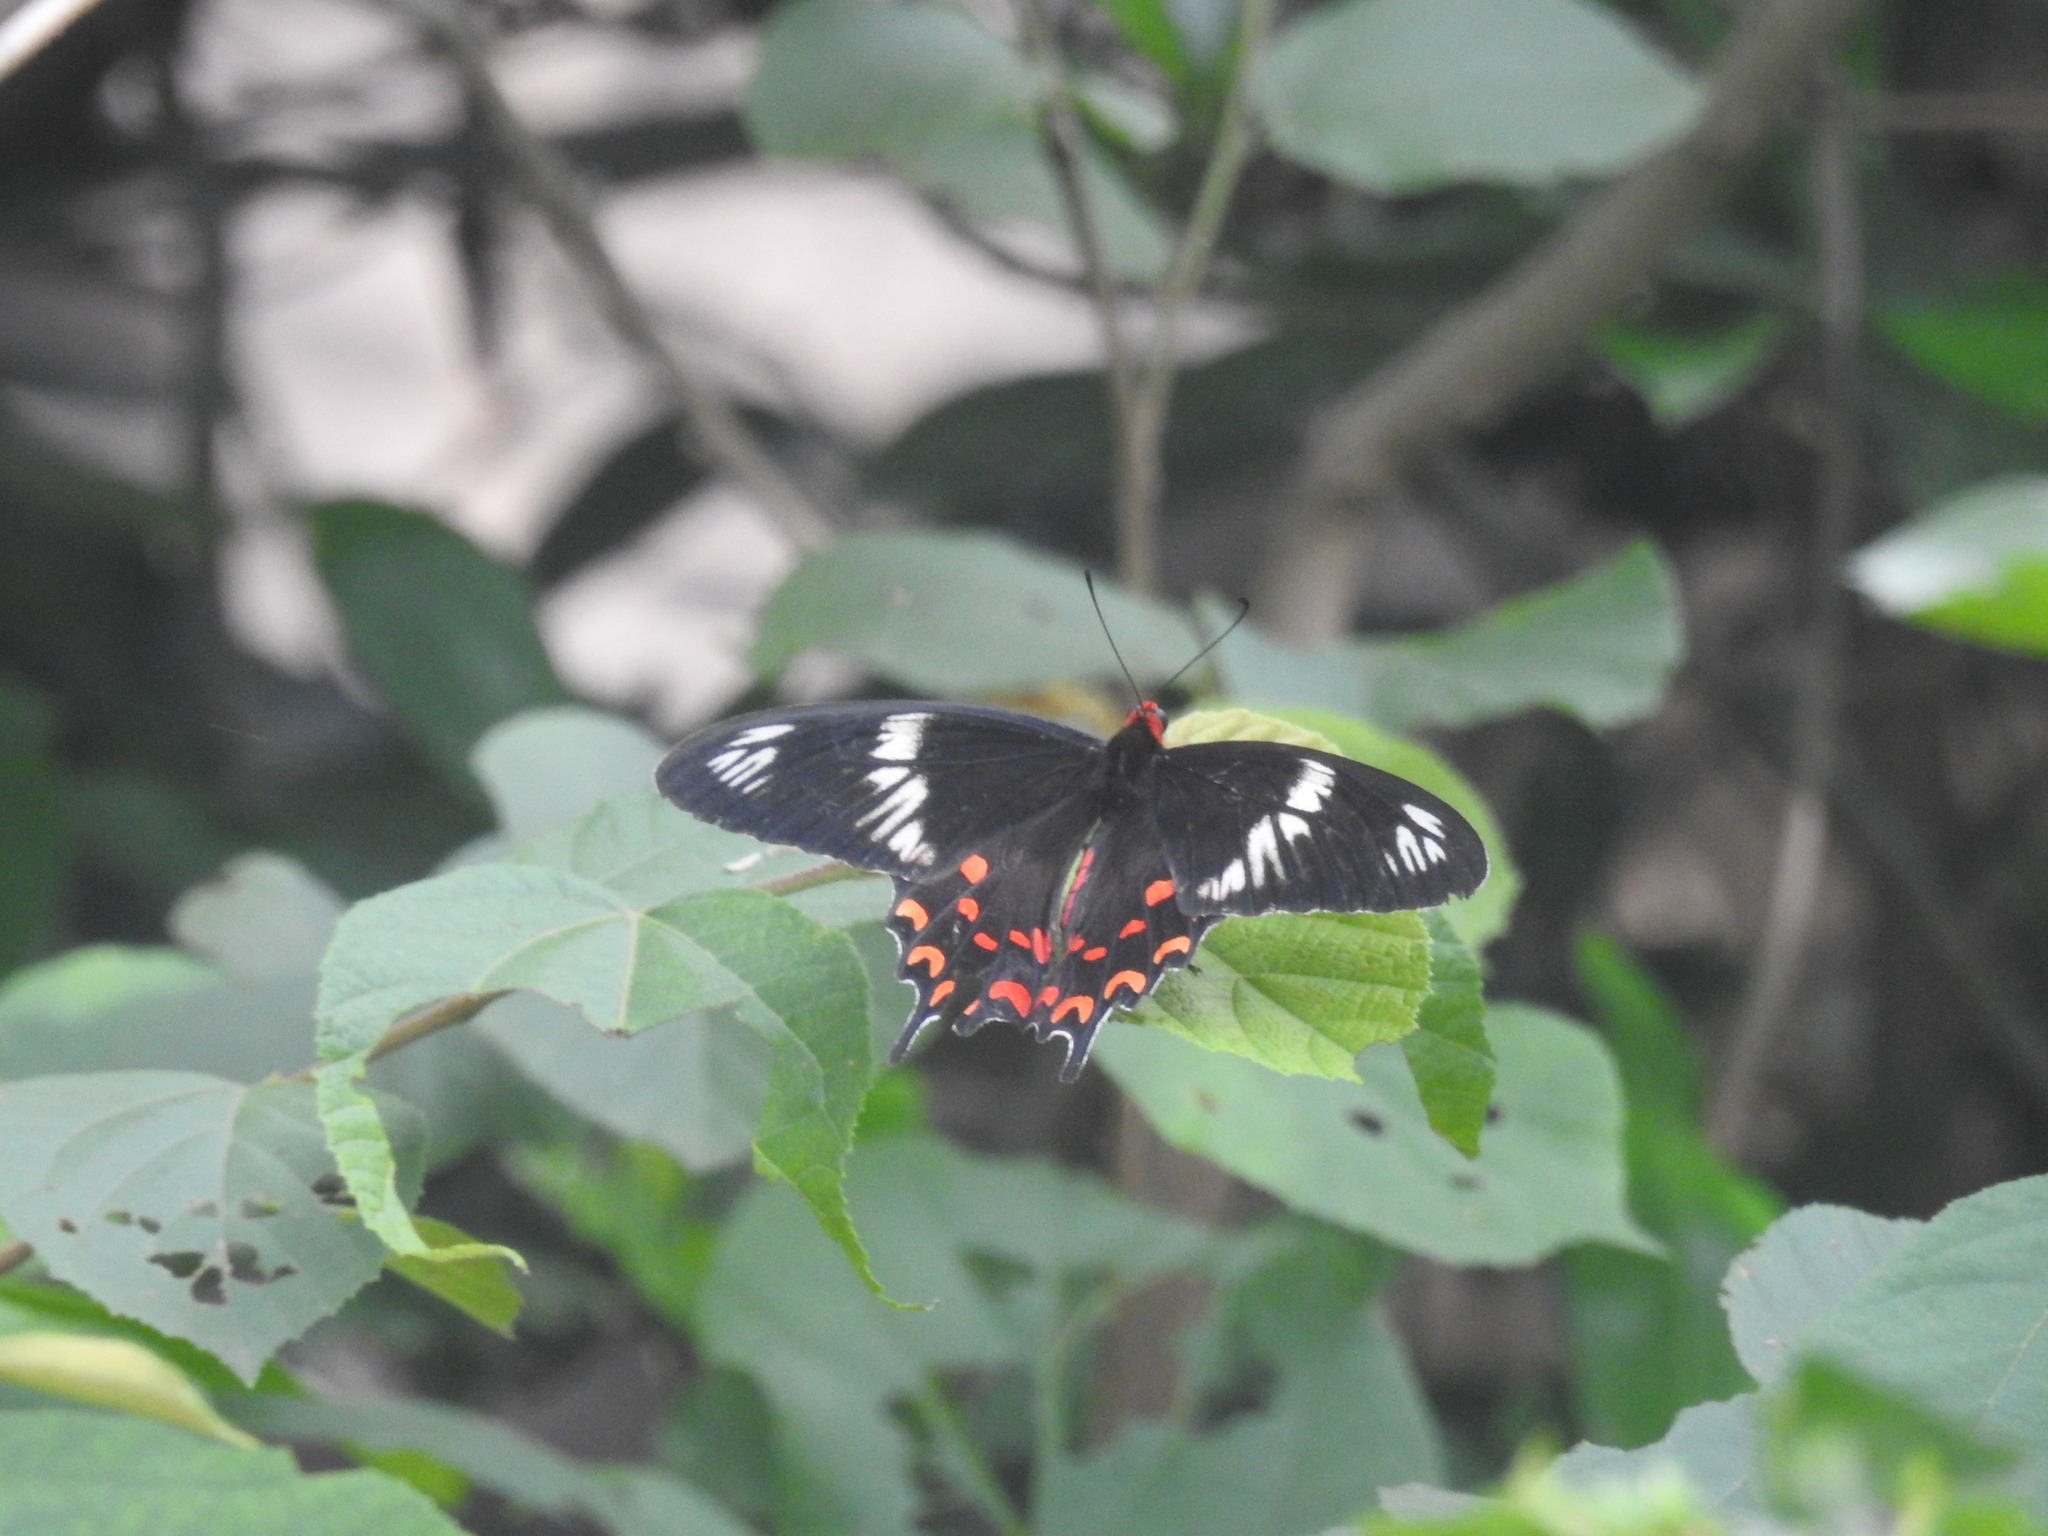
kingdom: Animalia
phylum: Arthropoda
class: Insecta
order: Lepidoptera
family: Papilionidae
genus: Pachliopta
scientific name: Pachliopta hector
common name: Crimson rose
